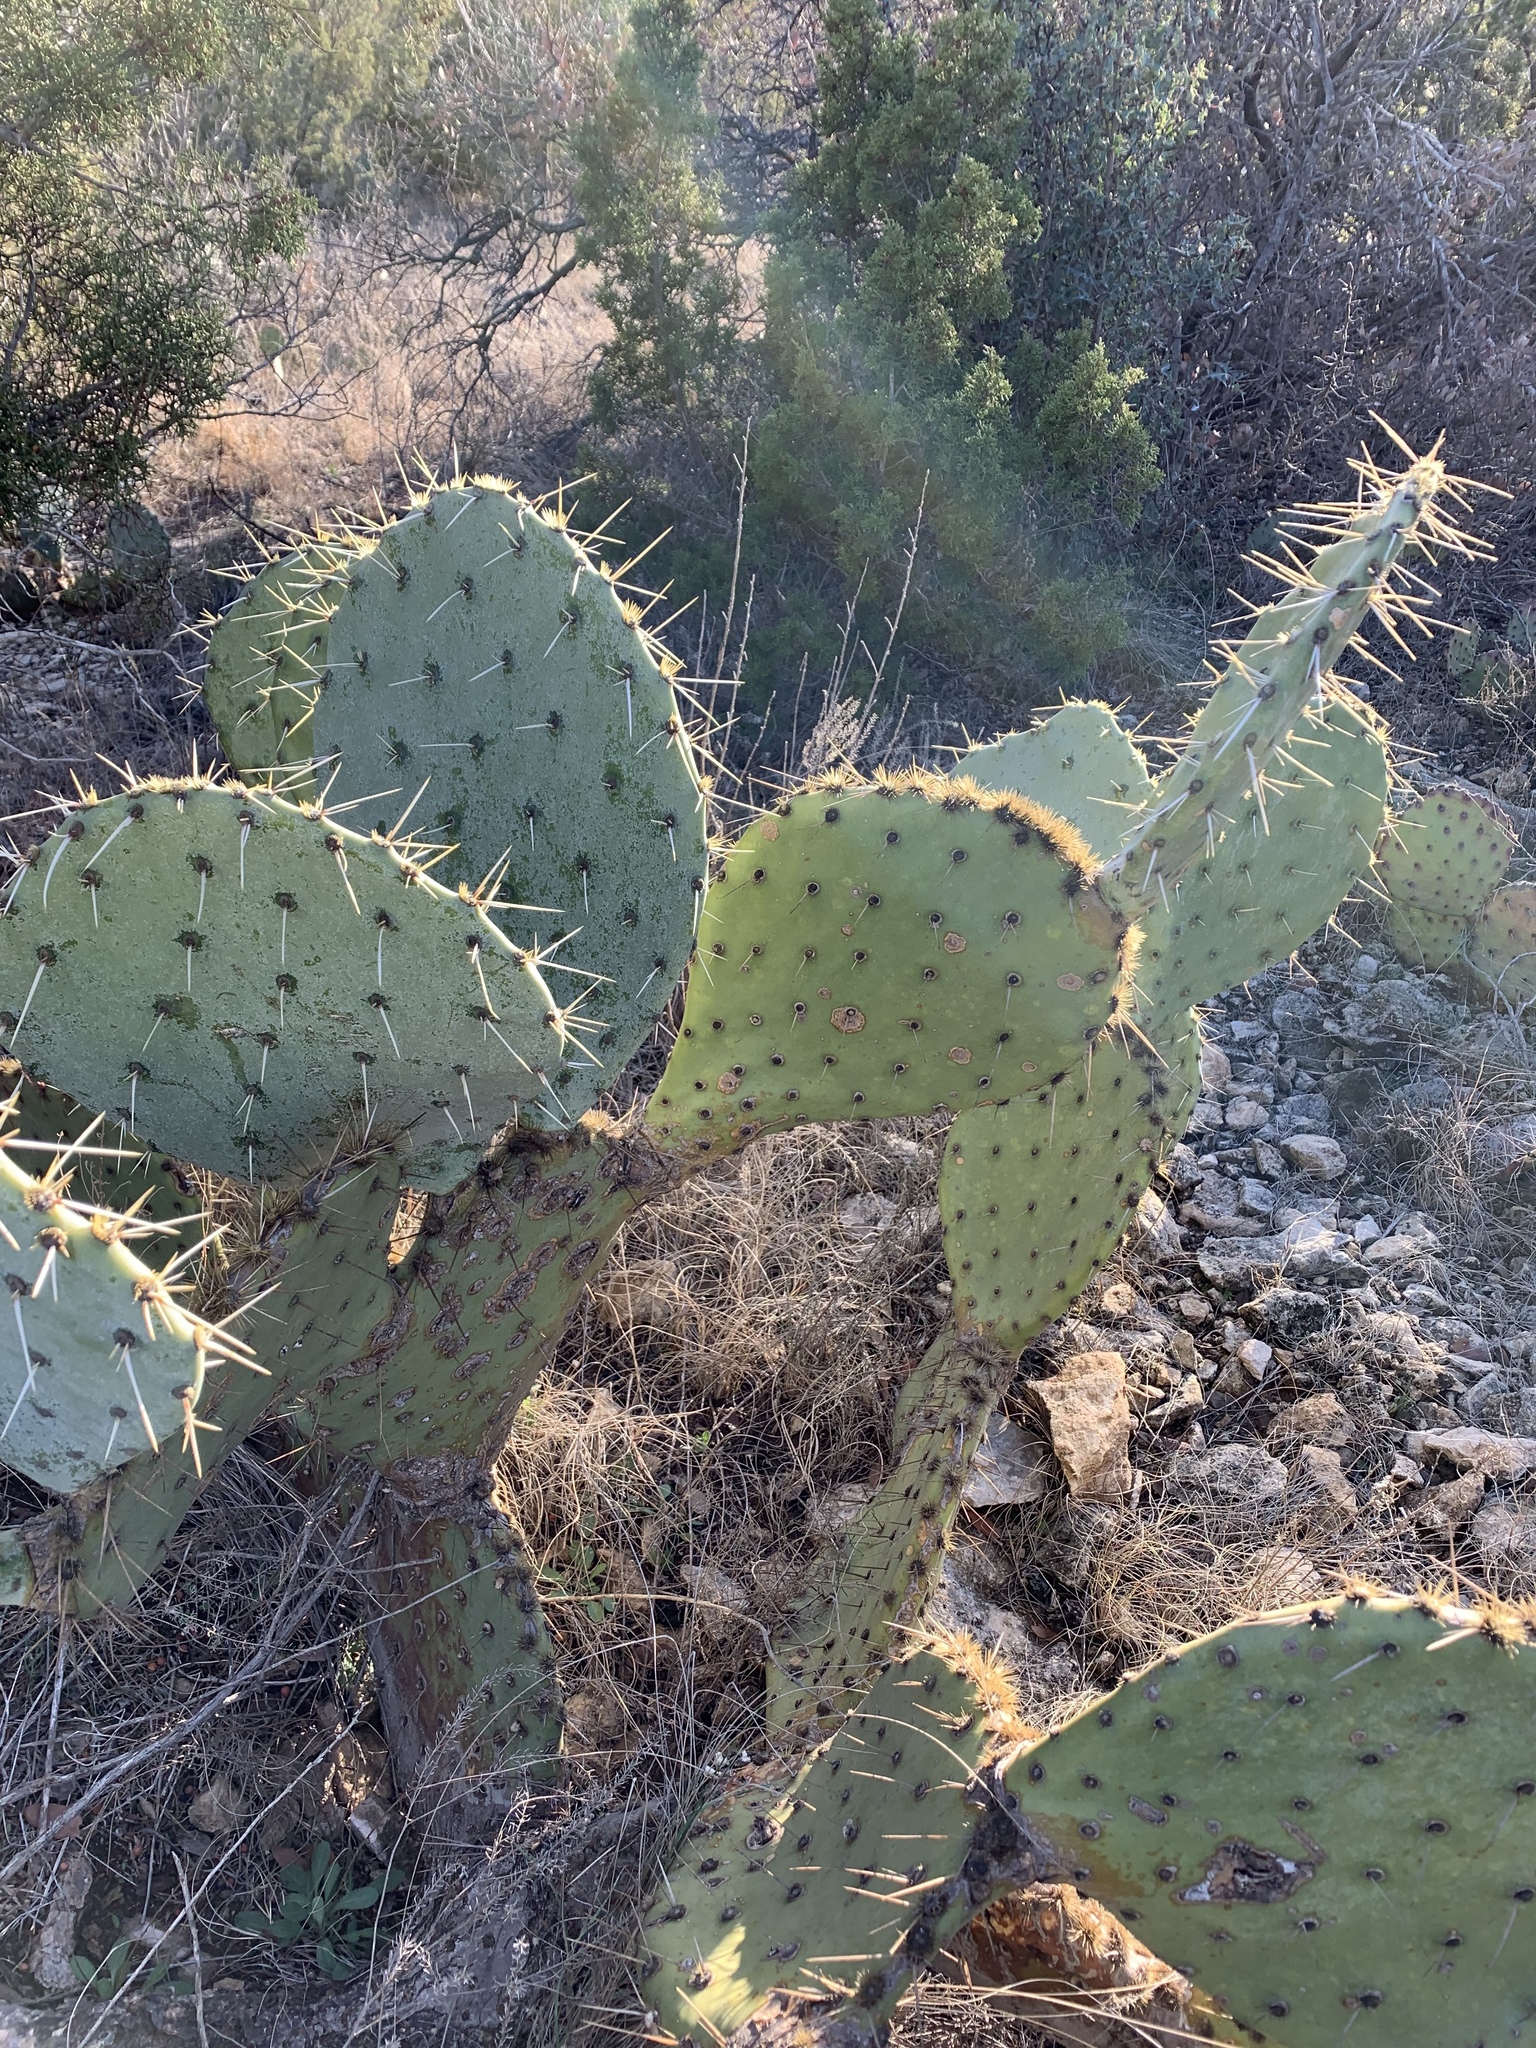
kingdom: Plantae
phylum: Tracheophyta
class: Magnoliopsida
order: Caryophyllales
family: Cactaceae
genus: Opuntia
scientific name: Opuntia engelmannii
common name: Cactus-apple
